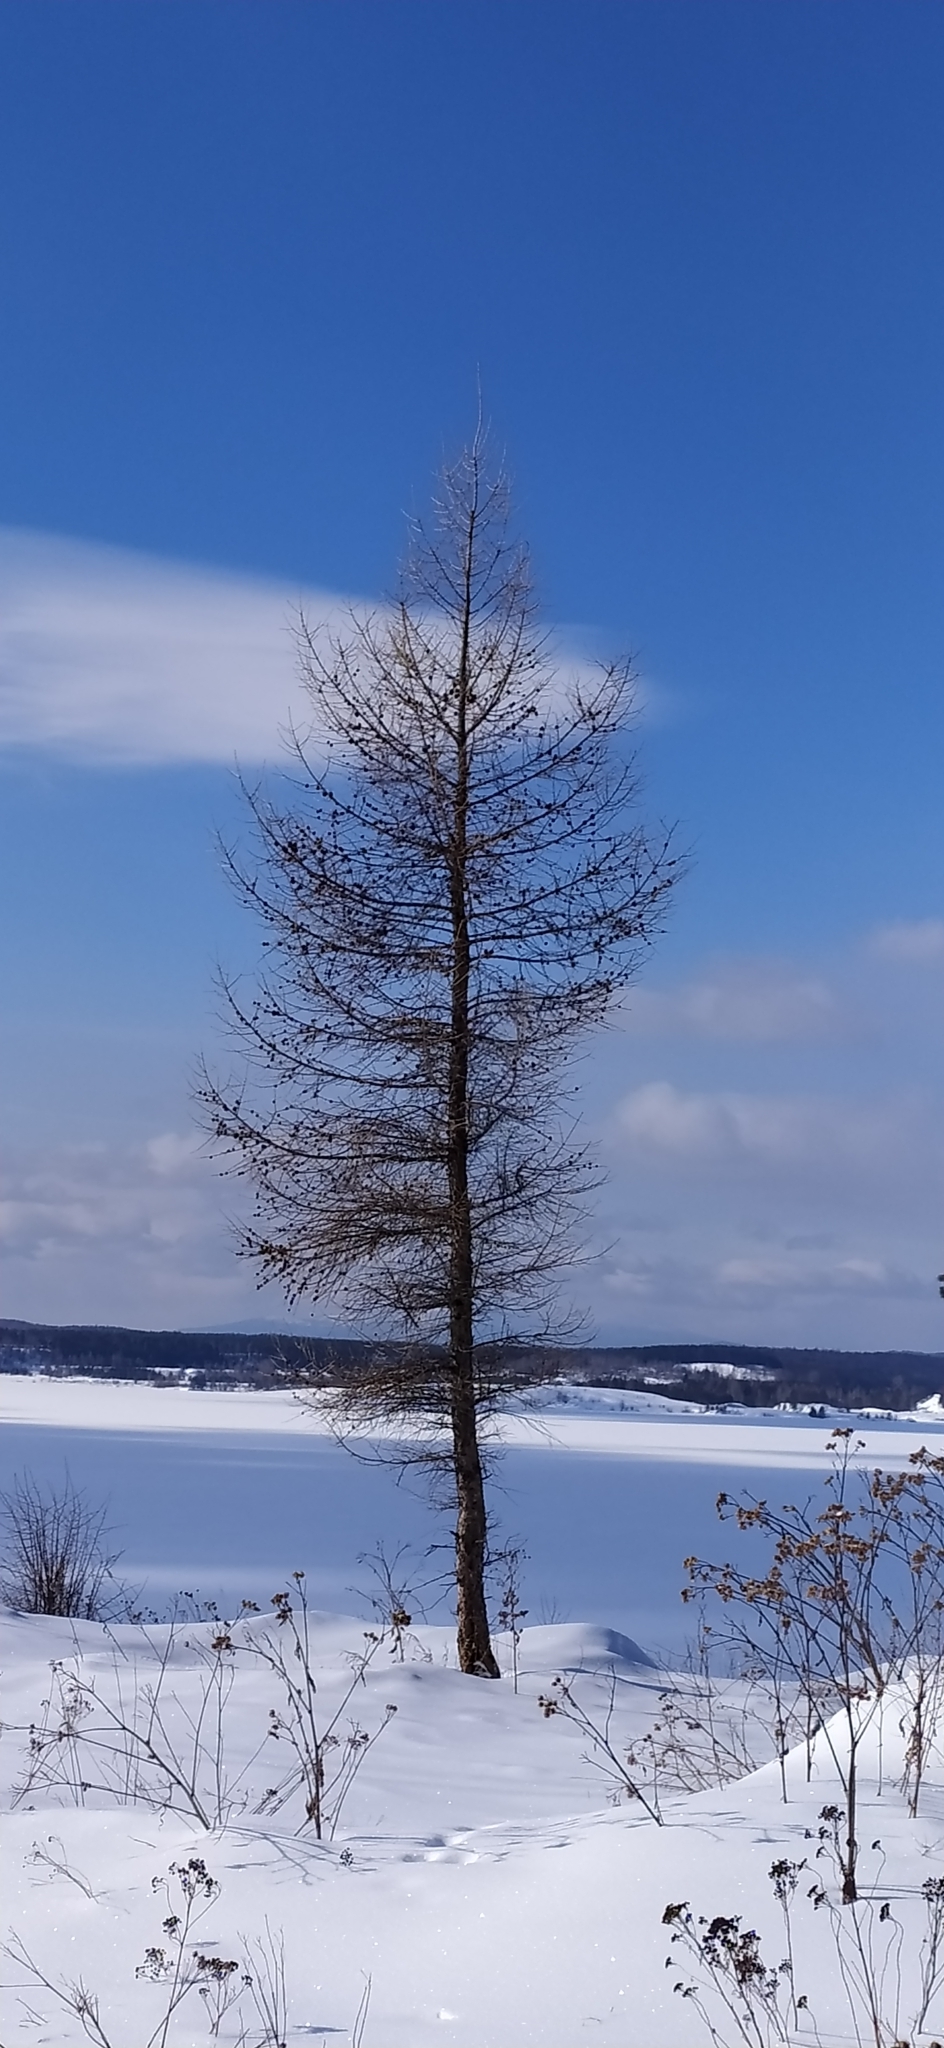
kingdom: Plantae
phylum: Tracheophyta
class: Pinopsida
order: Pinales
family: Pinaceae
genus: Larix
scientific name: Larix sibirica
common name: Siberian larch
